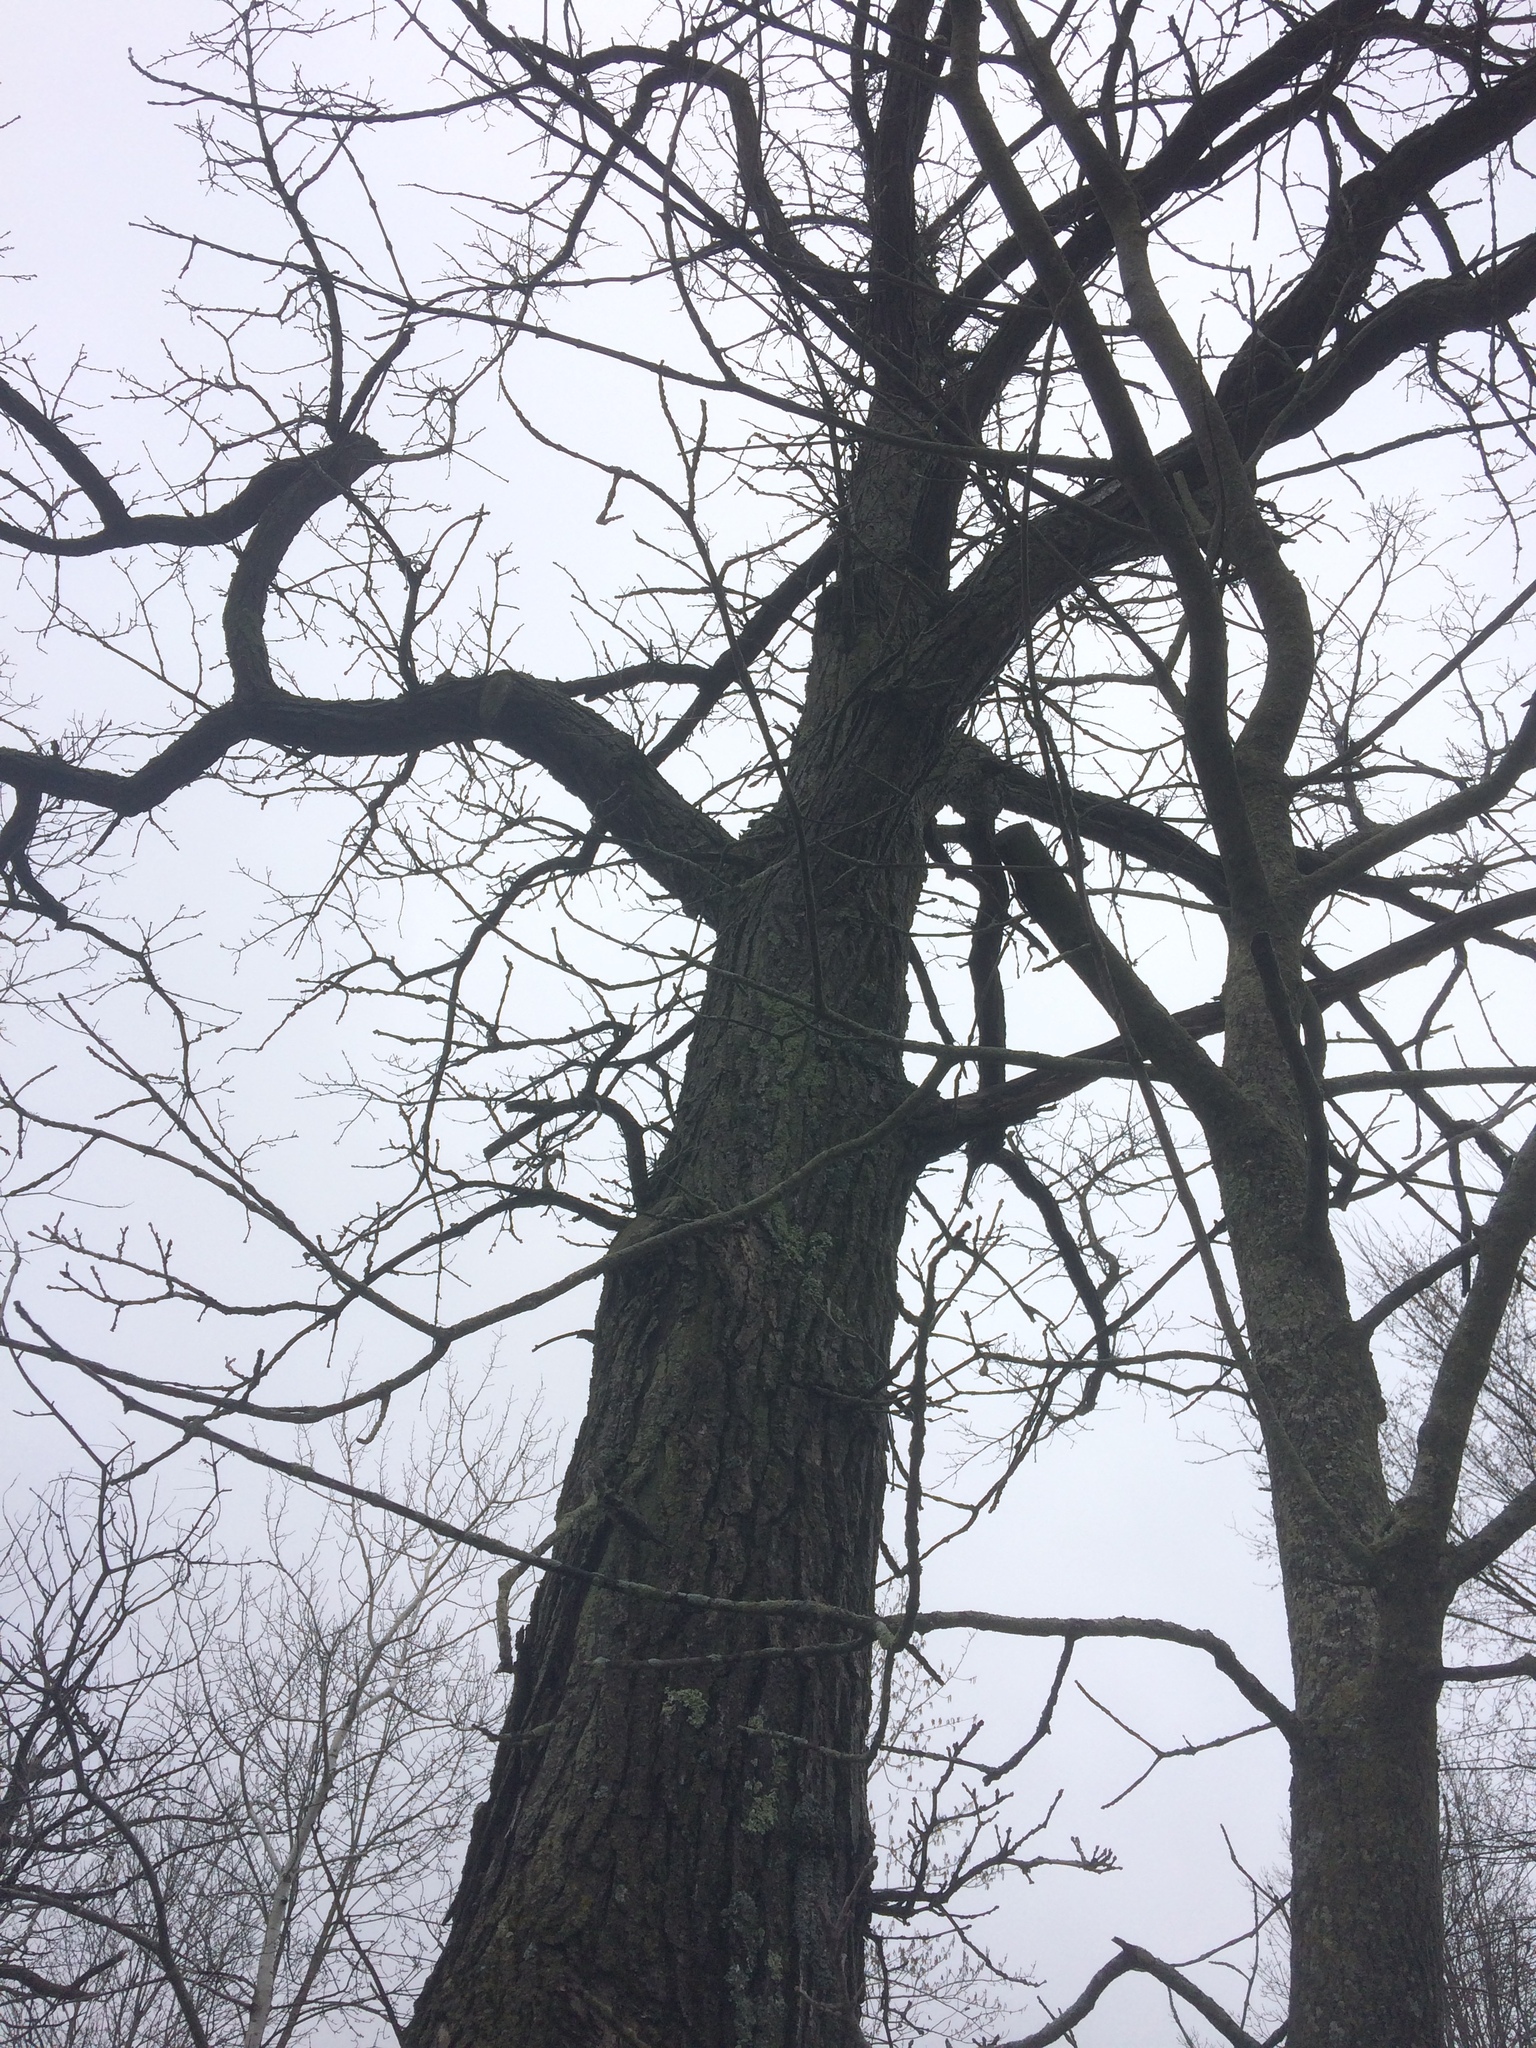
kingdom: Plantae
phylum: Tracheophyta
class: Magnoliopsida
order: Fagales
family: Fagaceae
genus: Quercus
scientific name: Quercus macrocarpa
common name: Bur oak
